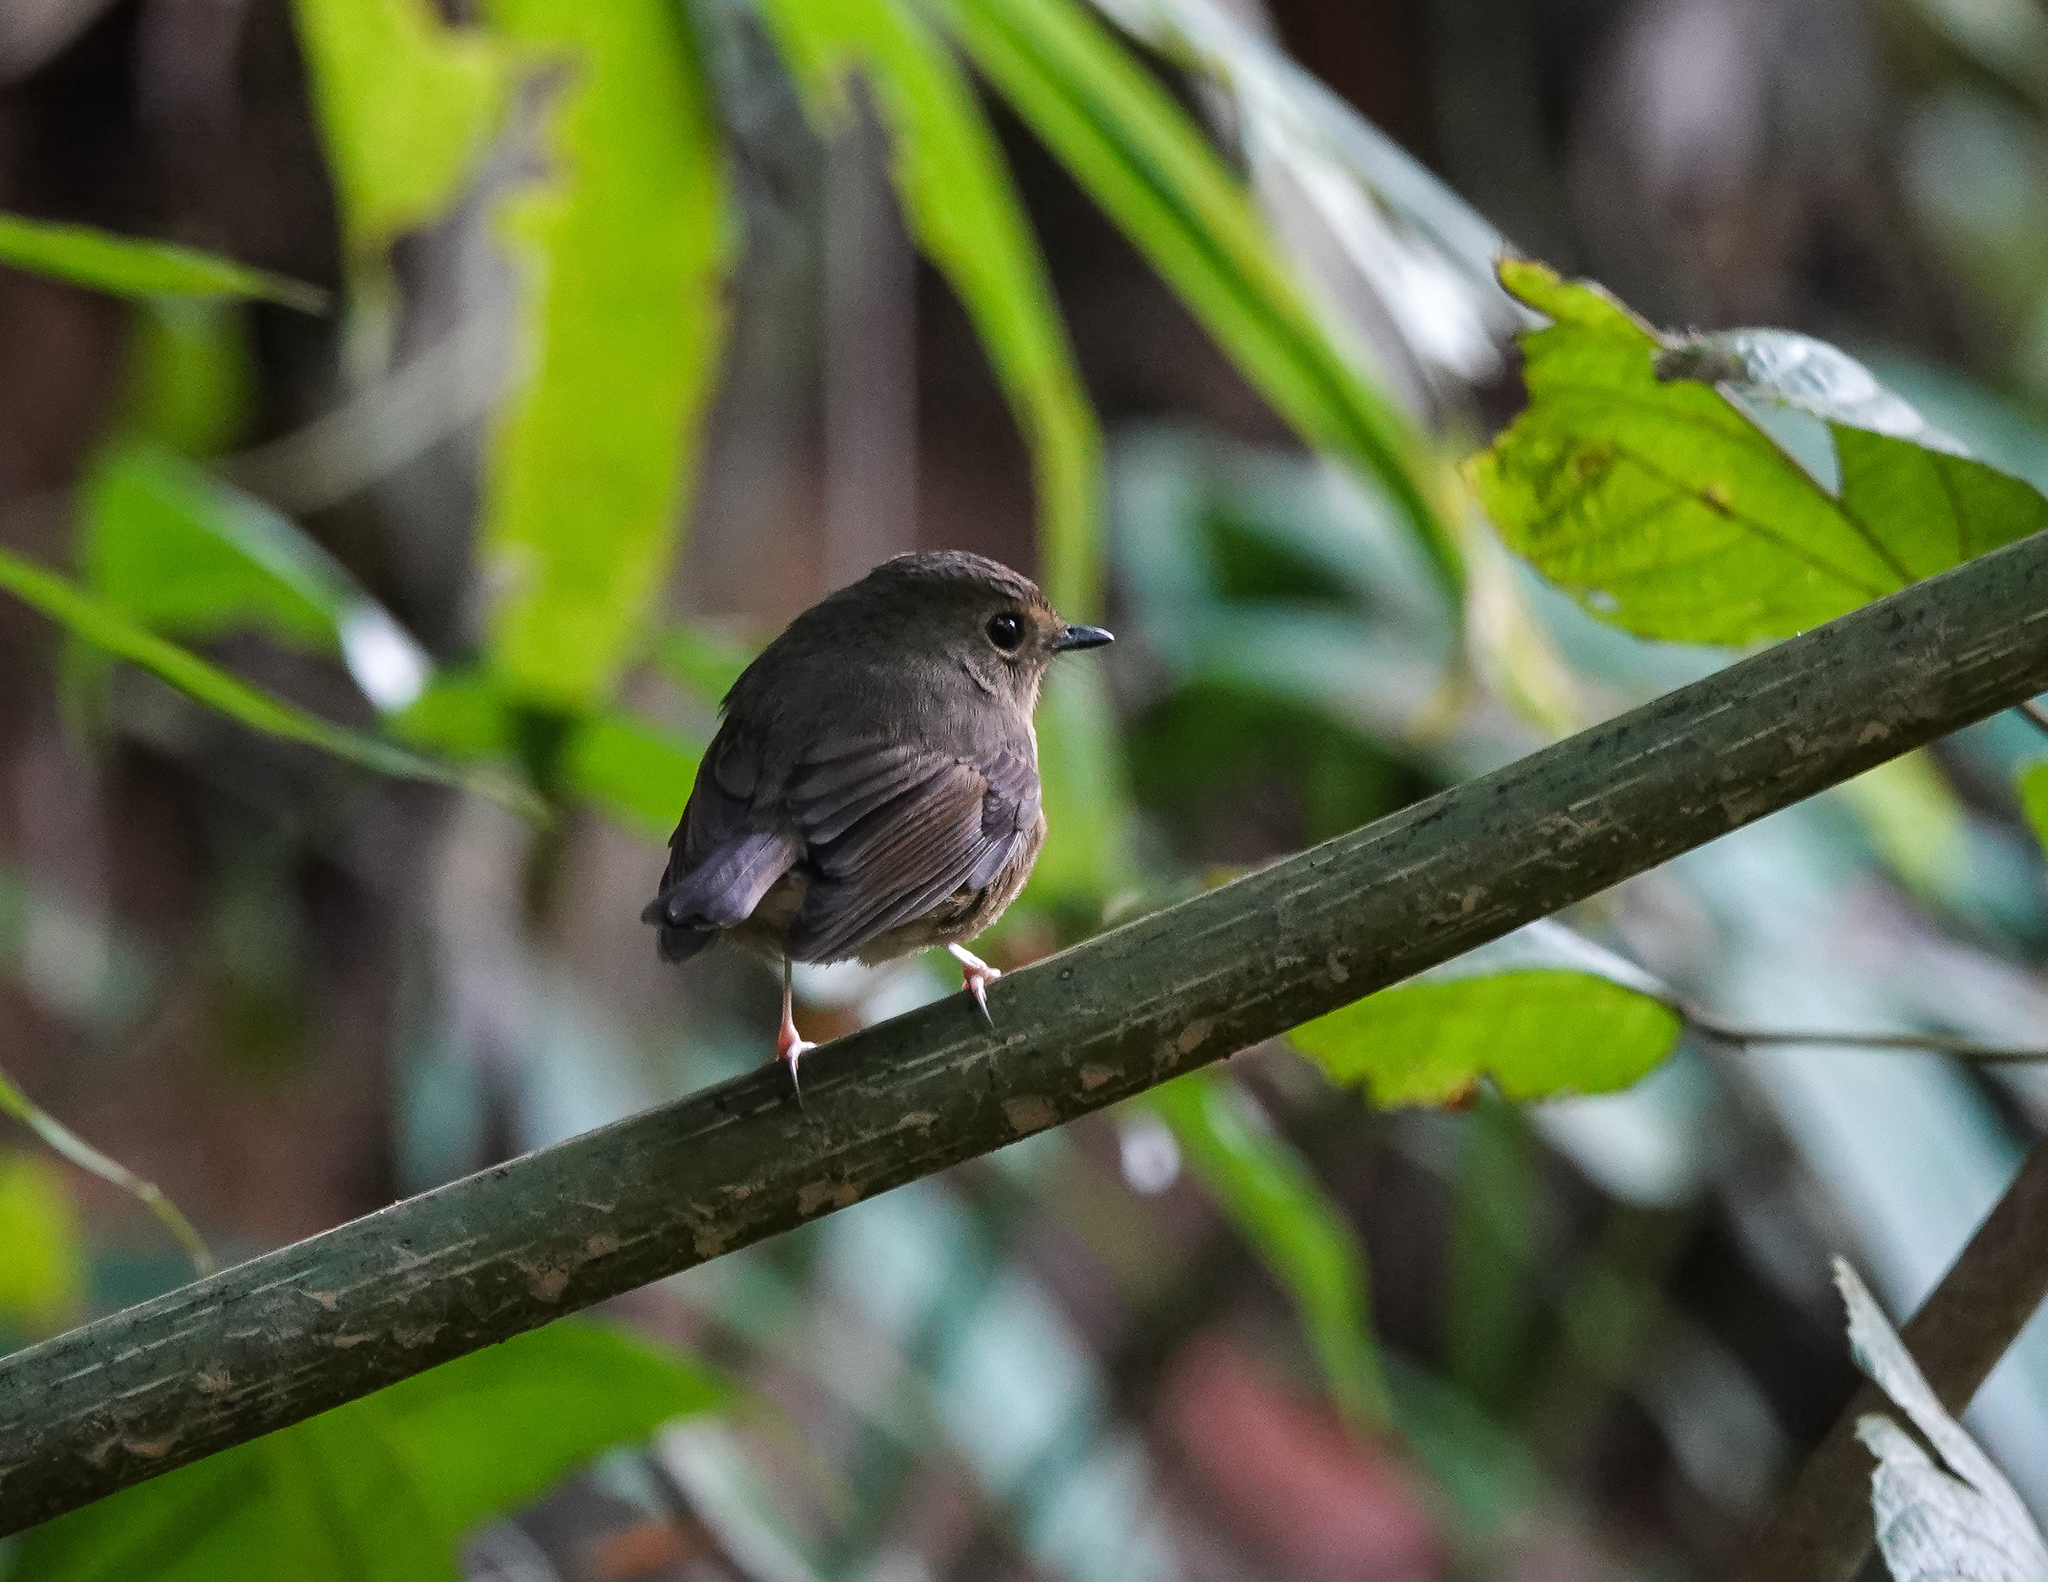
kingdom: Animalia
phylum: Chordata
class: Aves
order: Passeriformes
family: Muscicapidae
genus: Ficedula
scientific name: Ficedula hyperythra
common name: Snowy-browed flycatcher
